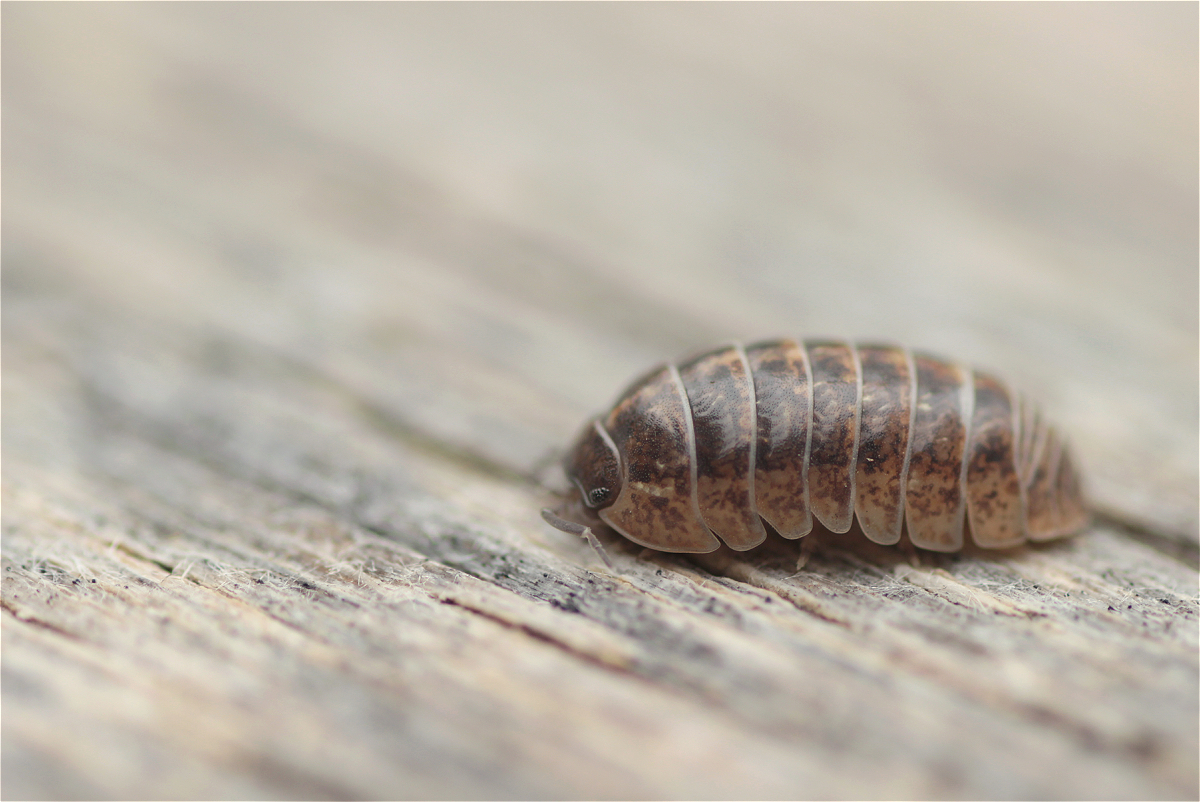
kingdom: Animalia
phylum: Arthropoda
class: Malacostraca
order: Isopoda
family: Armadillidiidae
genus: Armadillidium
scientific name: Armadillidium vulgare
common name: Common pill woodlouse
